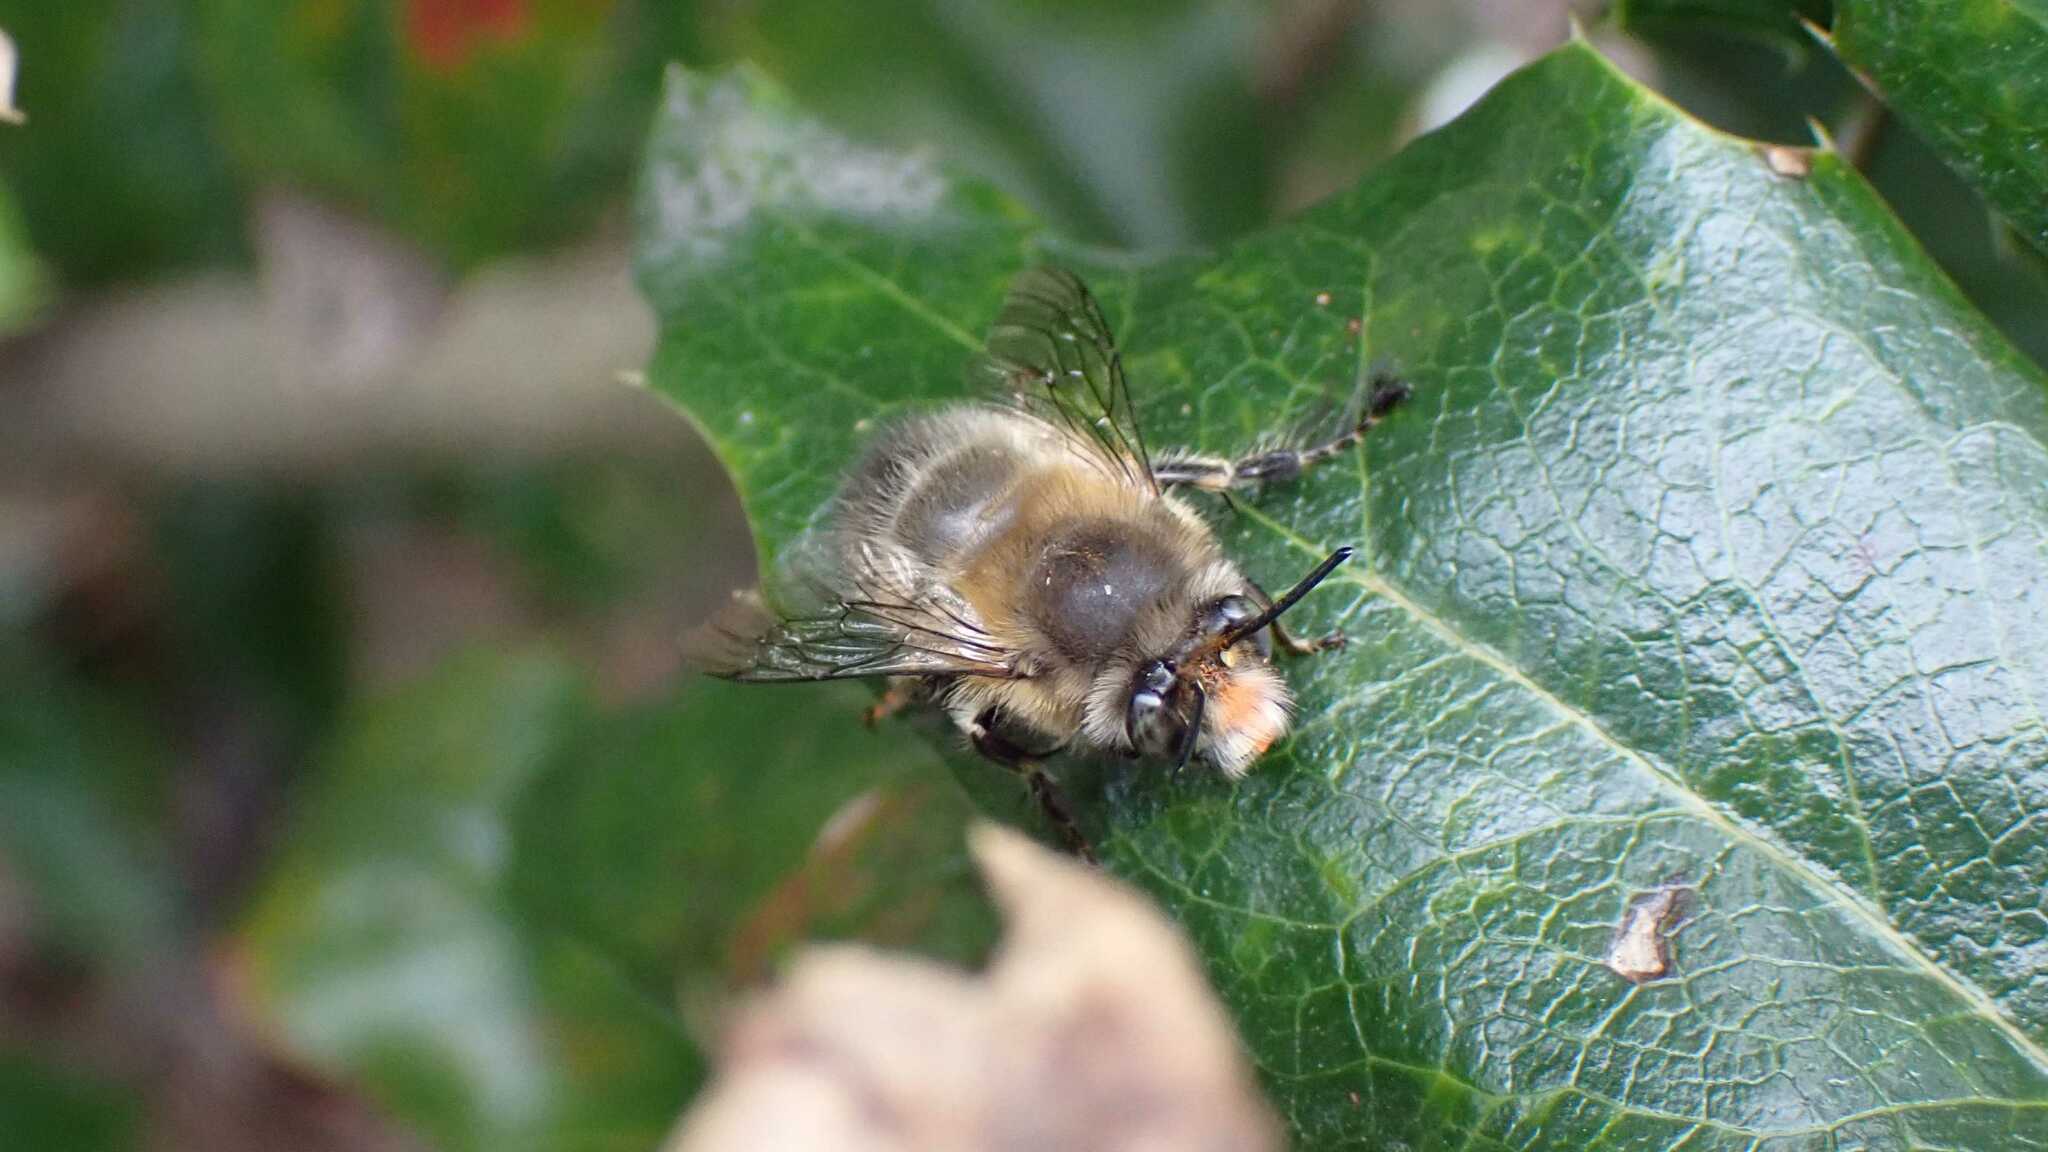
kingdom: Animalia
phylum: Arthropoda
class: Insecta
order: Hymenoptera
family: Apidae
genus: Anthophora
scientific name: Anthophora plumipes
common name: Hairy-footed flower bee
